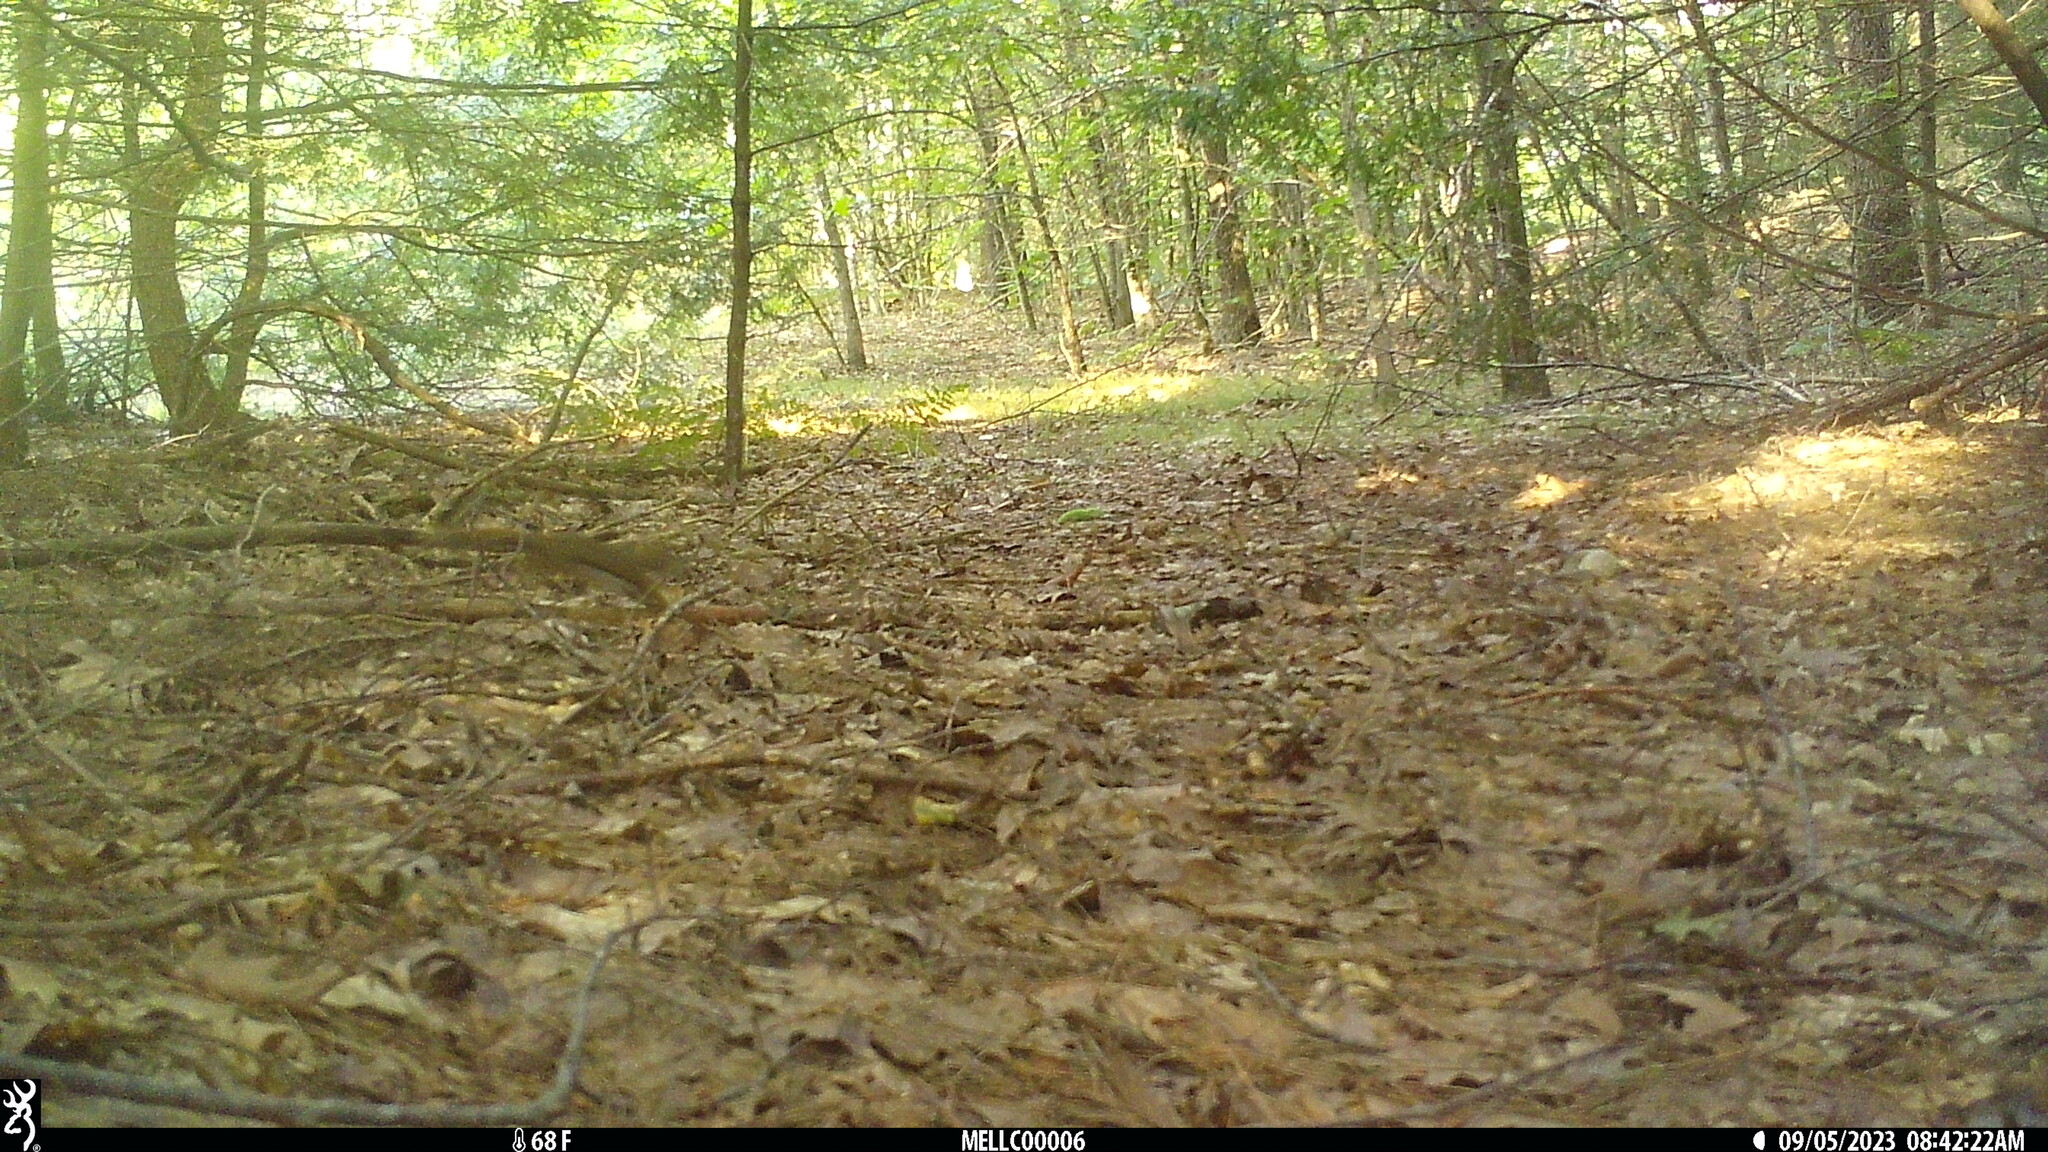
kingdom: Animalia
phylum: Chordata
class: Mammalia
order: Rodentia
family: Sciuridae
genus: Tamiasciurus
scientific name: Tamiasciurus hudsonicus
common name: Red squirrel
